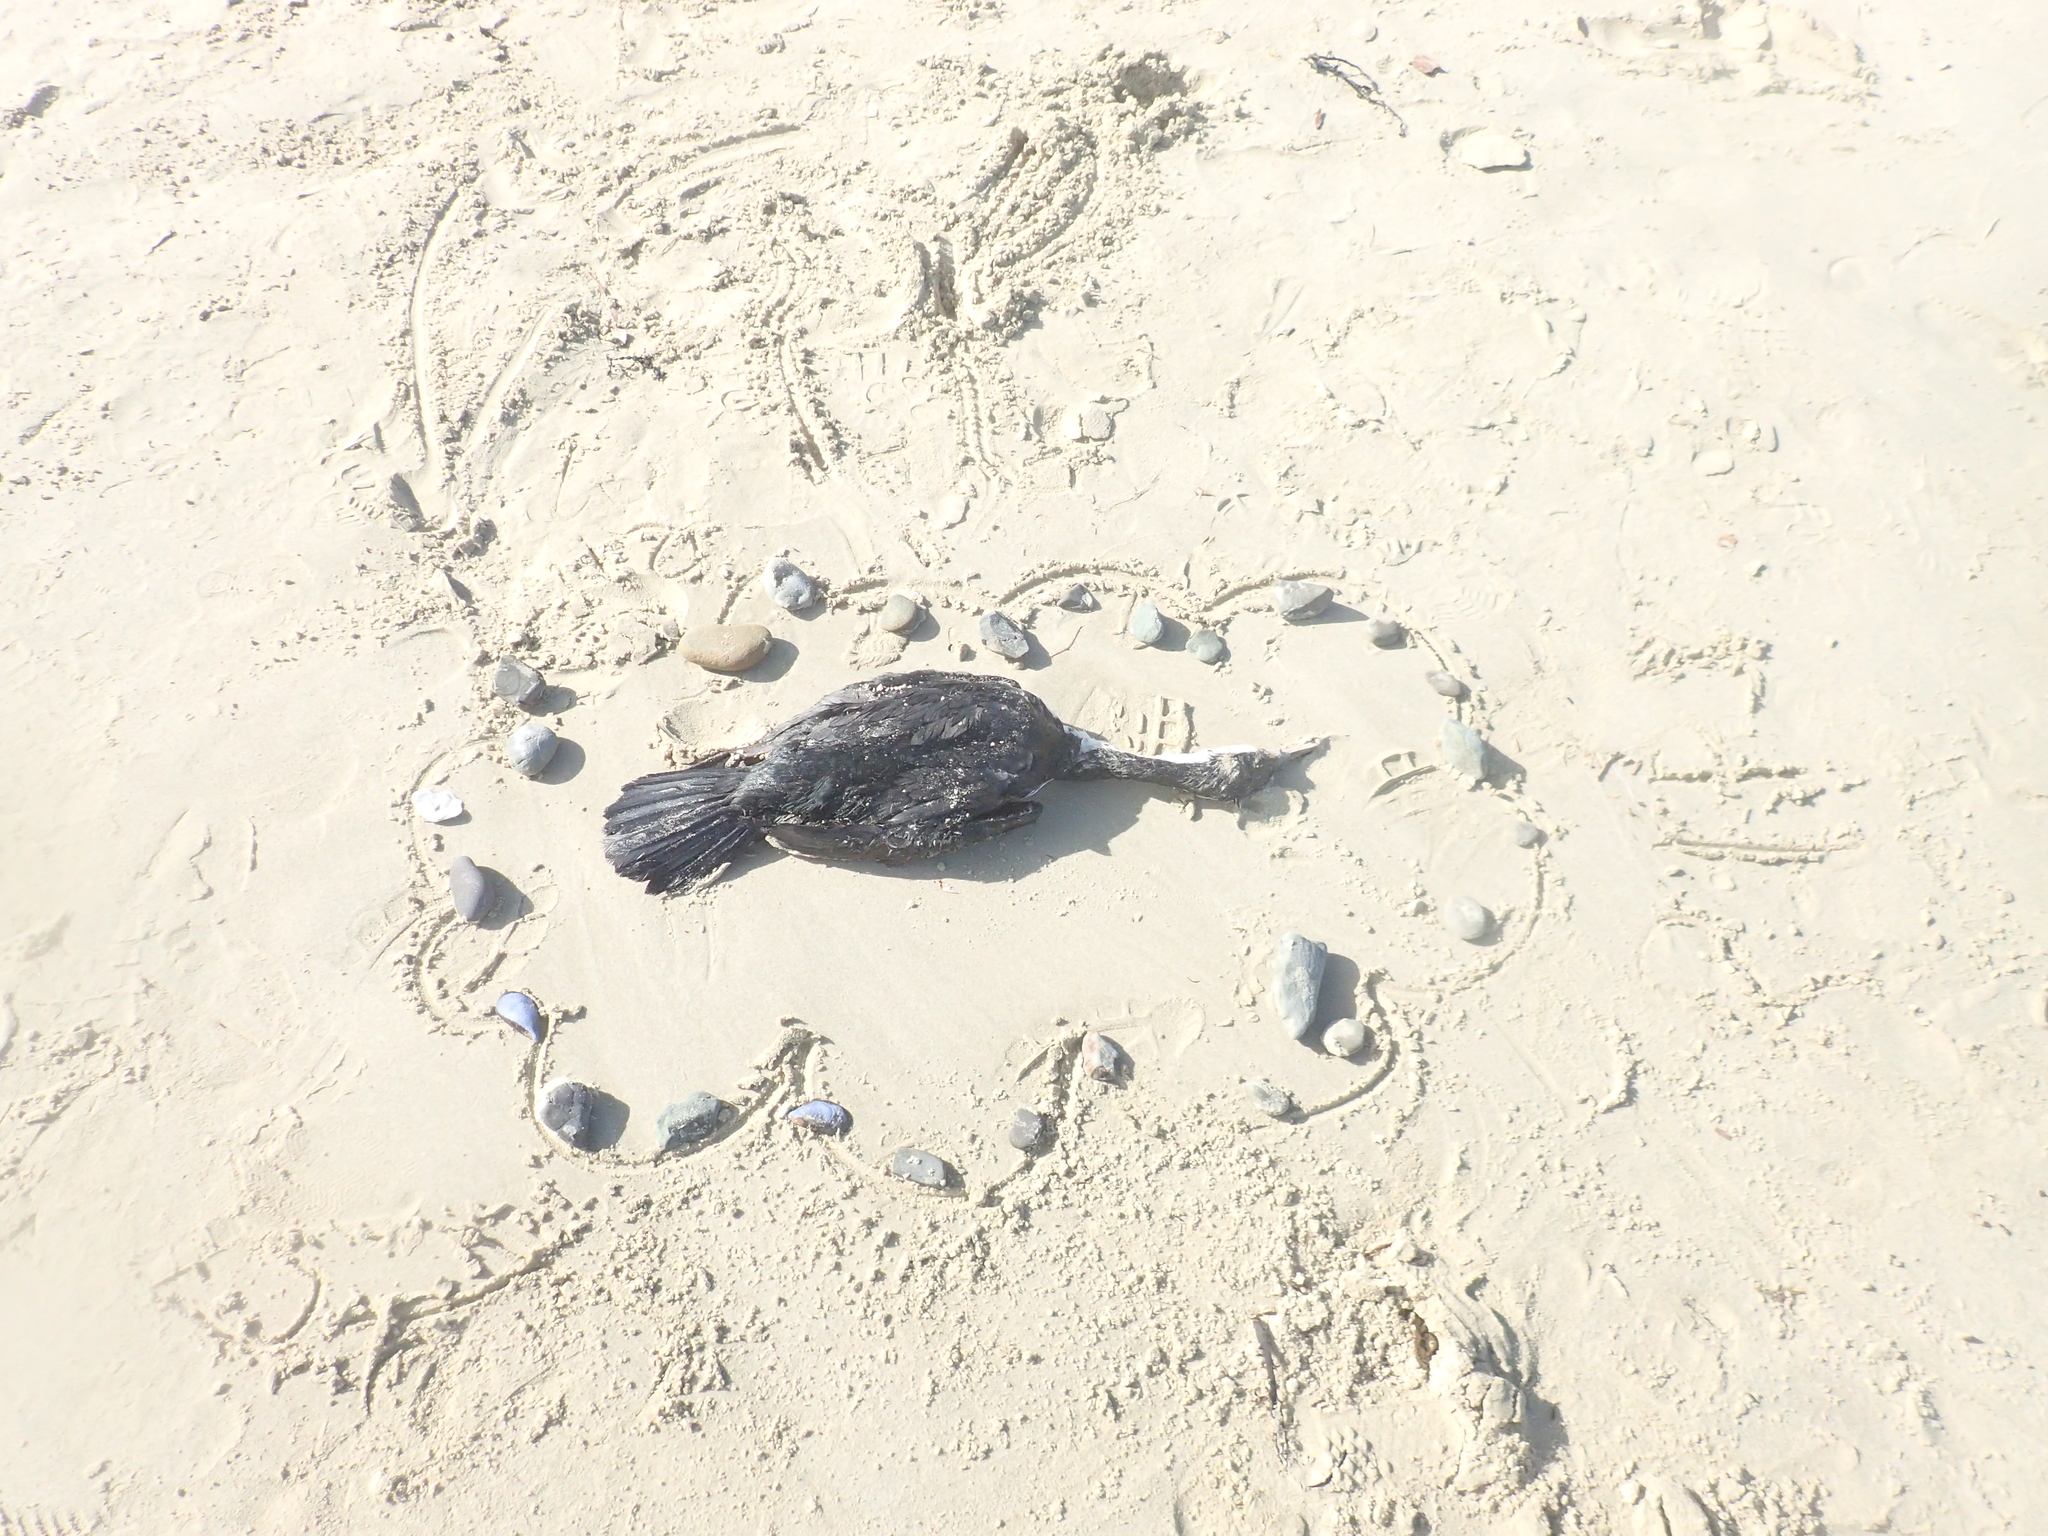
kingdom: Animalia
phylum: Chordata
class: Aves
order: Suliformes
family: Phalacrocoracidae
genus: Phalacrocorax
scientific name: Phalacrocorax varius
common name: Pied cormorant
